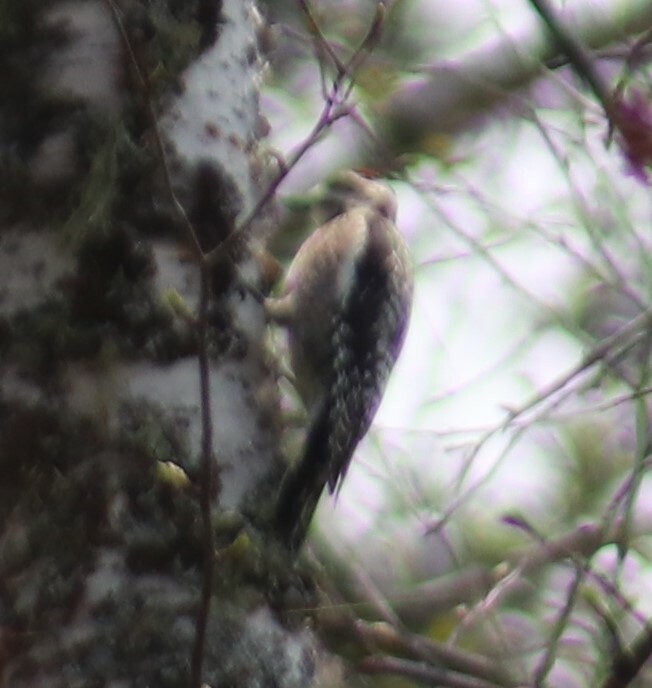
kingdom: Animalia
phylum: Chordata
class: Aves
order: Piciformes
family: Picidae
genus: Sphyrapicus
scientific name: Sphyrapicus varius
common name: Yellow-bellied sapsucker
